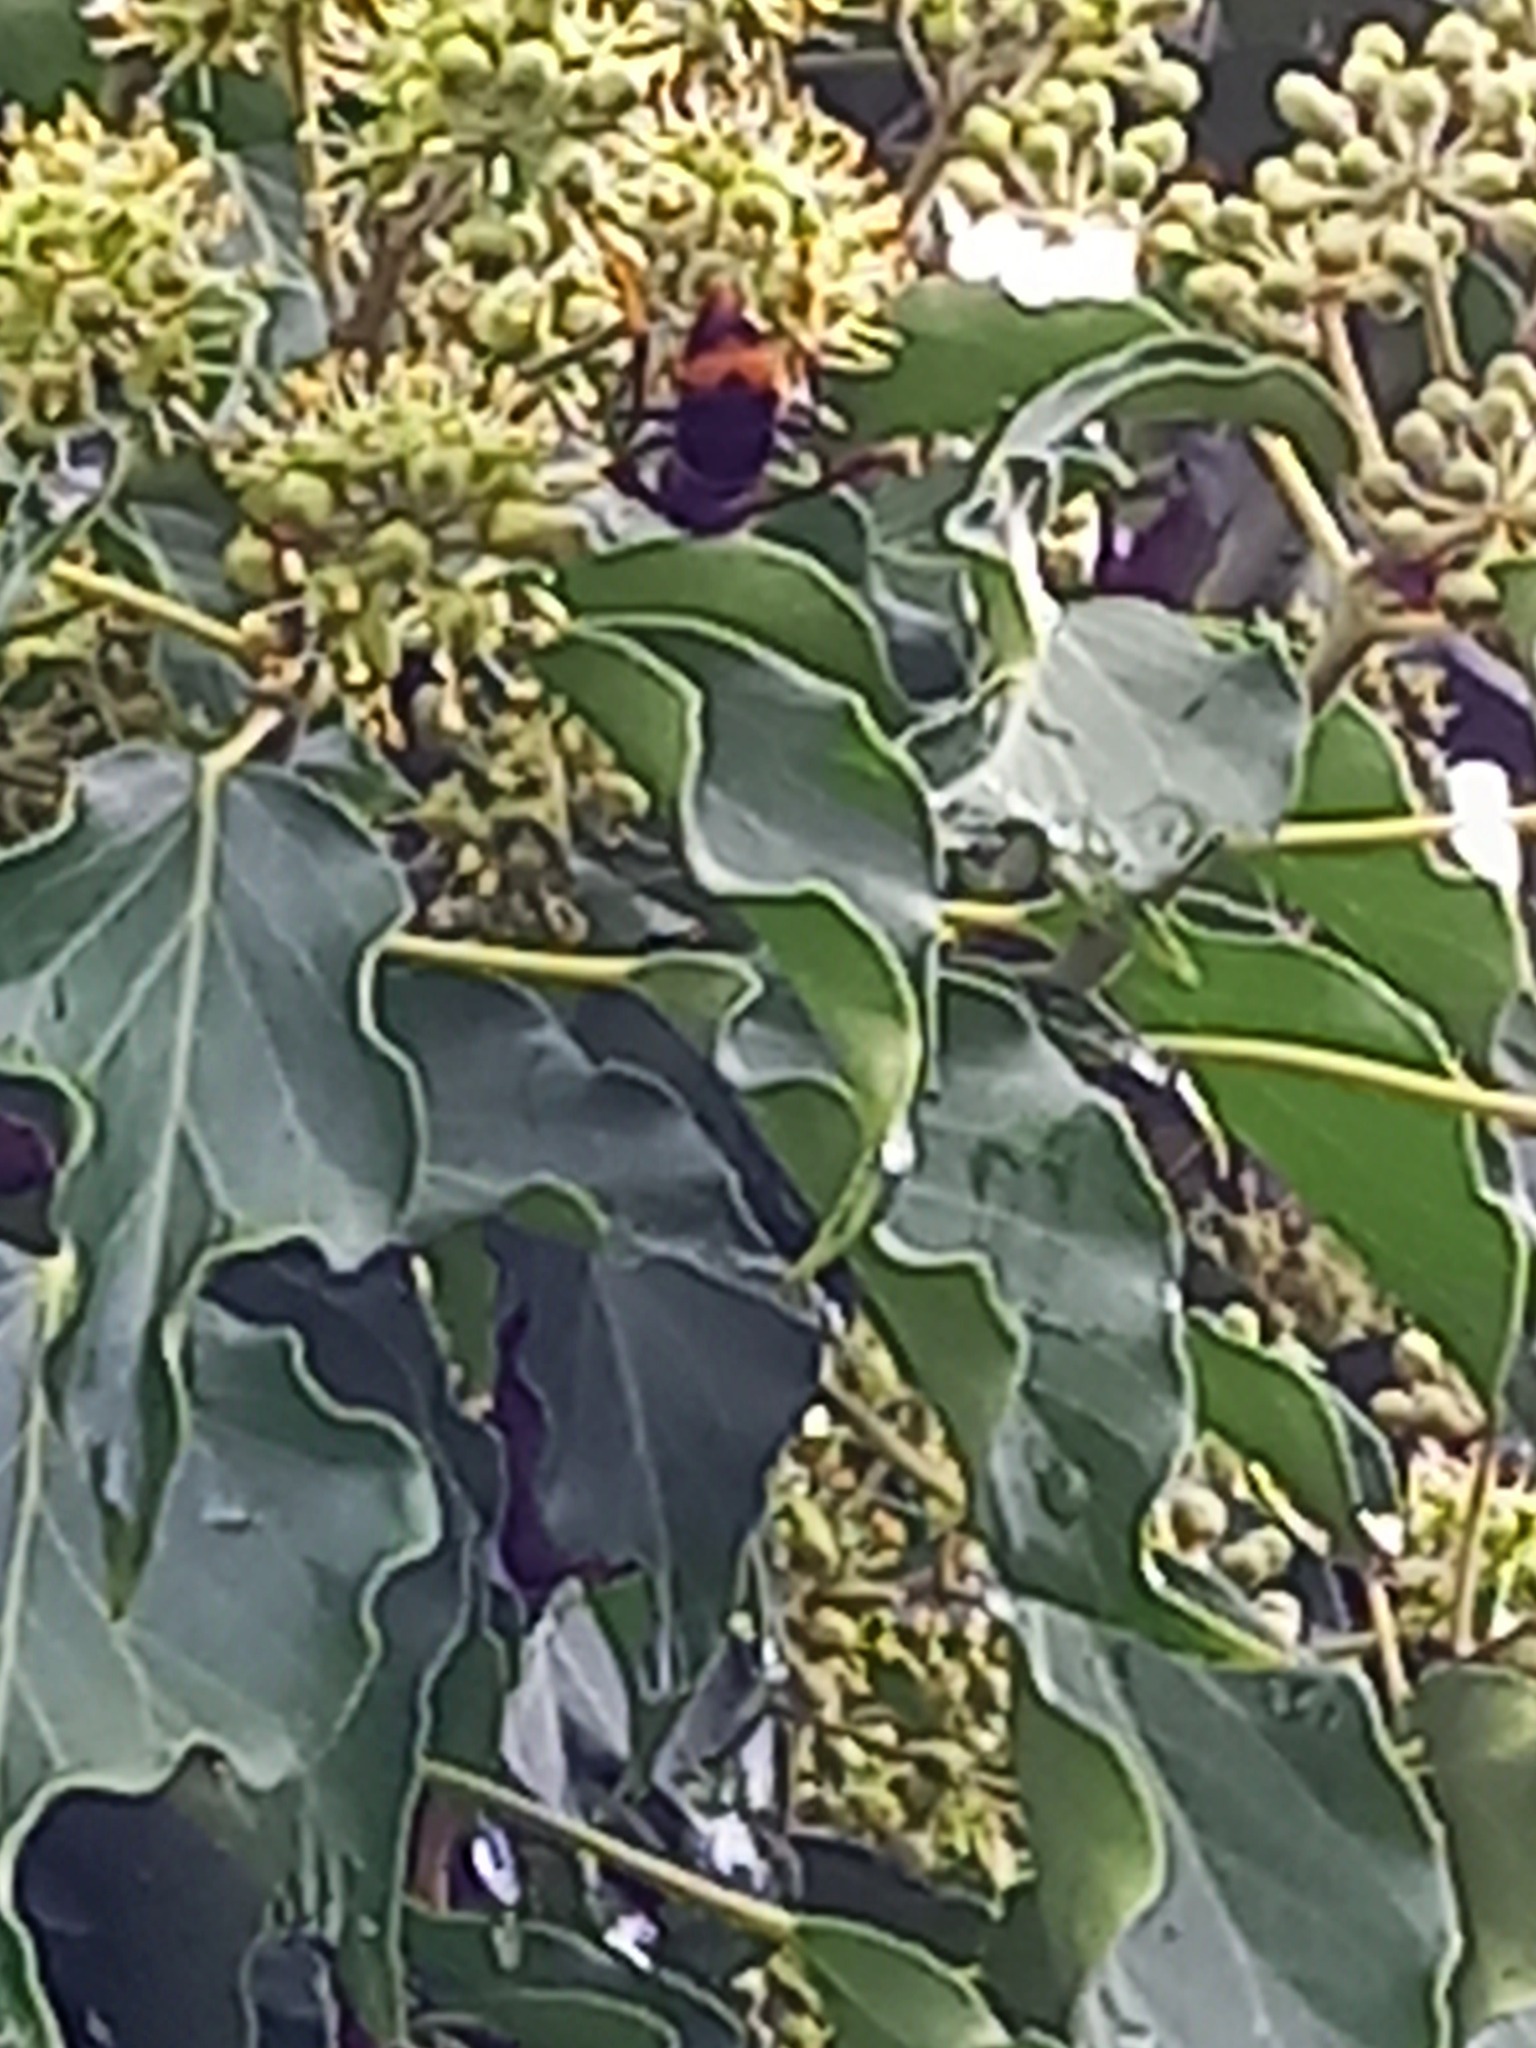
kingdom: Animalia
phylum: Arthropoda
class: Insecta
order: Hymenoptera
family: Vespidae
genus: Vespa
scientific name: Vespa velutina
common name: Asian hornet
